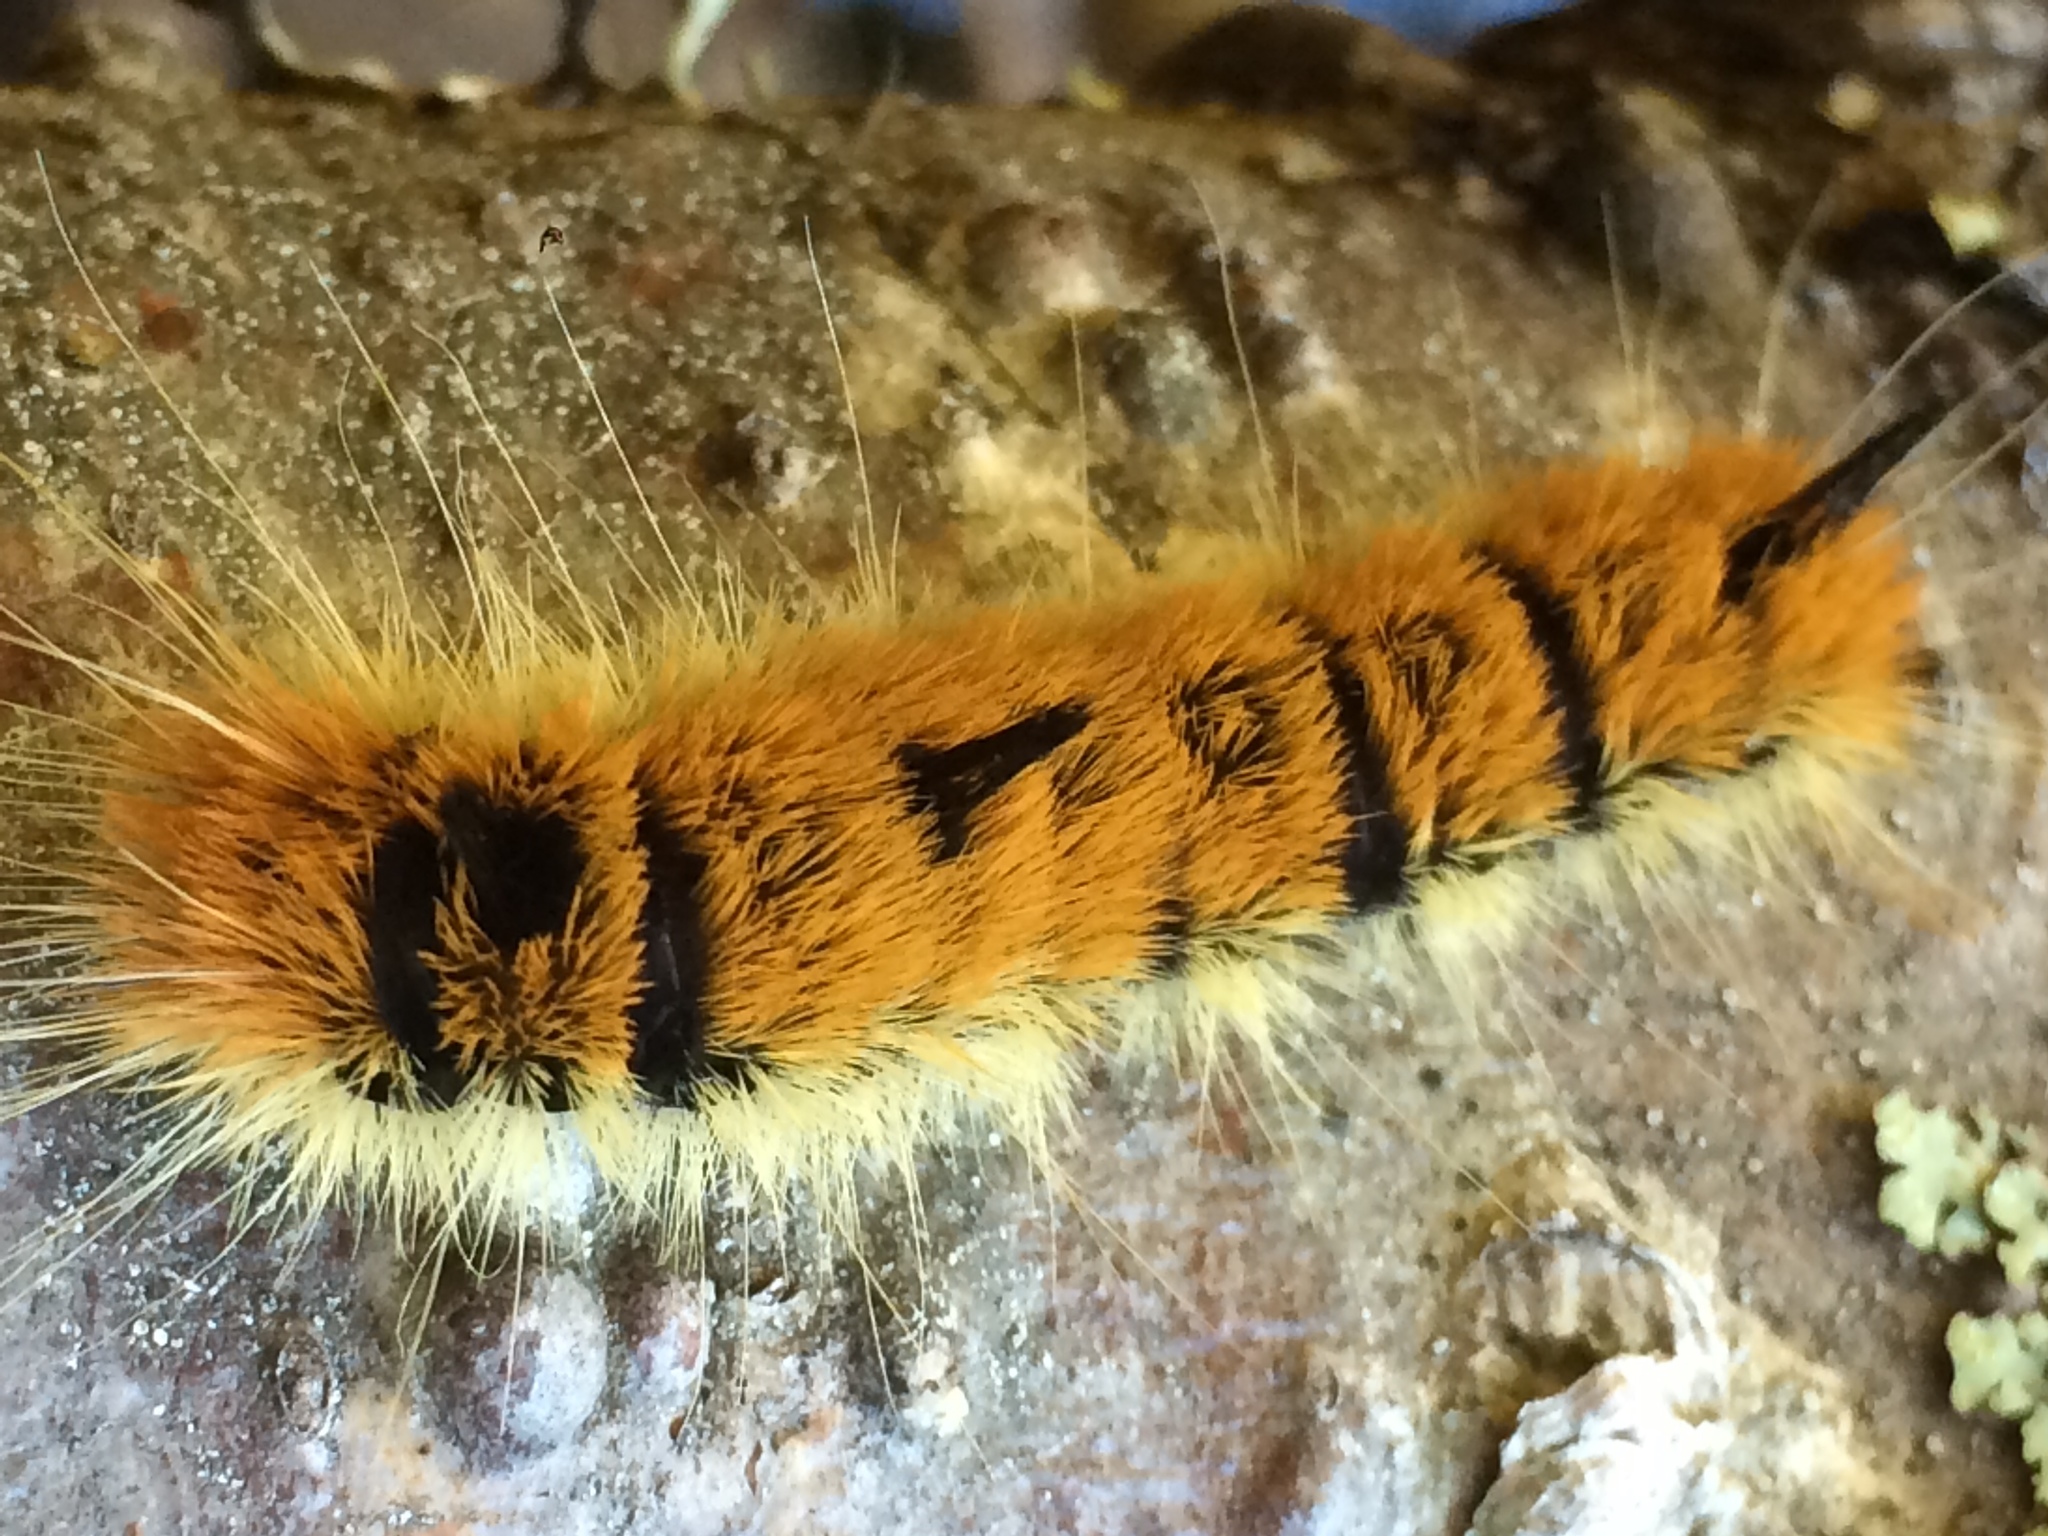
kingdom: Animalia
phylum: Arthropoda
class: Insecta
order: Lepidoptera
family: Noctuidae
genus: Acronicta
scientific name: Acronicta insita
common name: Large gray dagger
